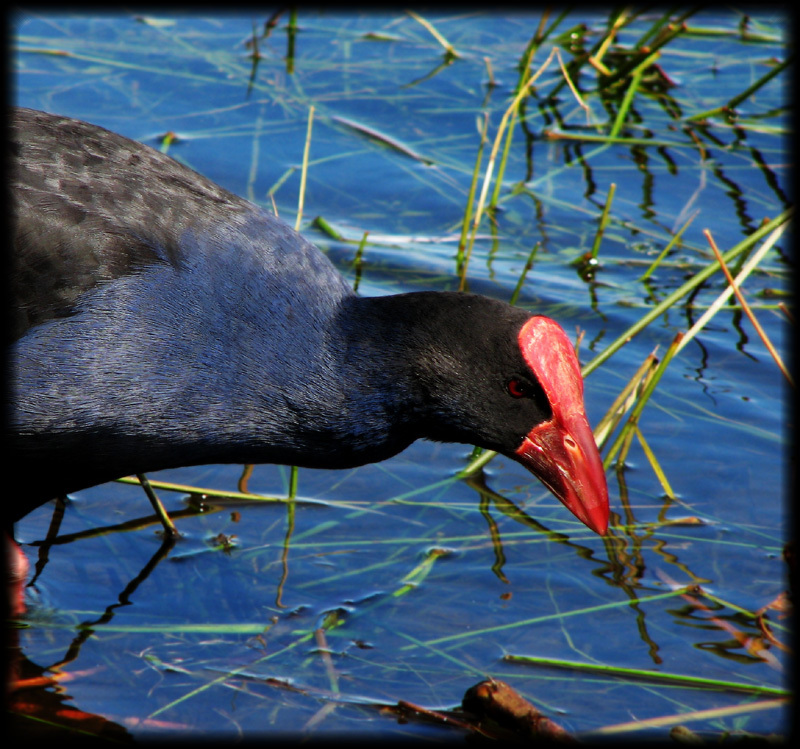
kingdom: Animalia
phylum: Chordata
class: Aves
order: Gruiformes
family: Rallidae
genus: Porphyrio
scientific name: Porphyrio melanotus
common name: Australasian swamphen
